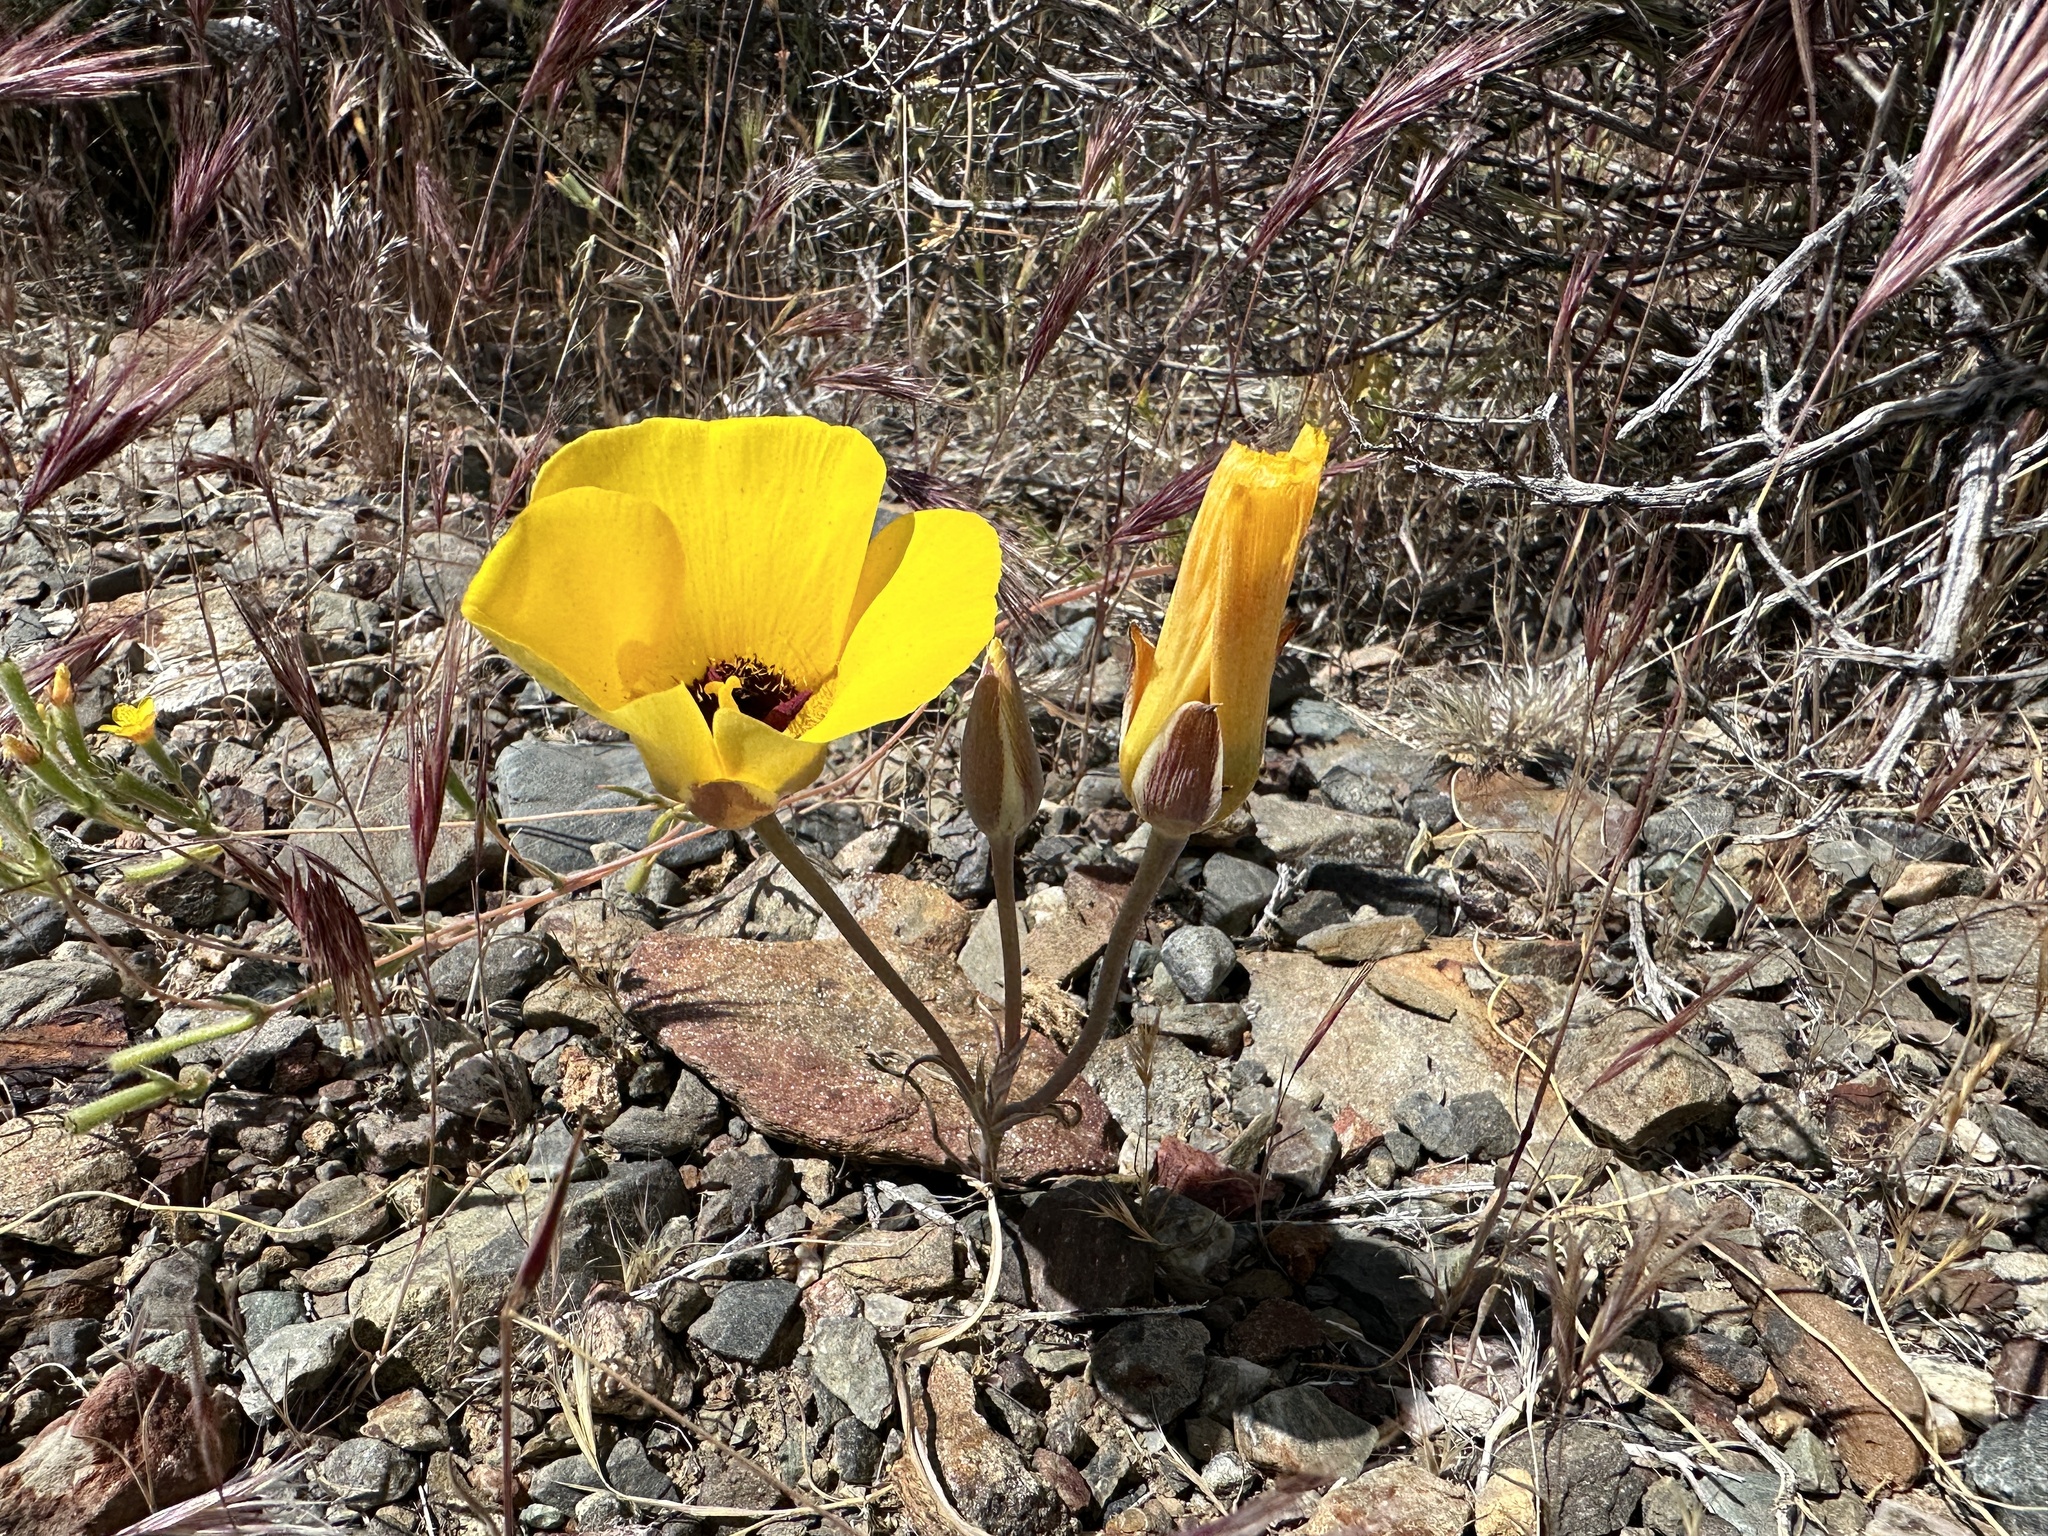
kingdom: Plantae
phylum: Tracheophyta
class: Liliopsida
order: Liliales
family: Liliaceae
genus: Calochortus
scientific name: Calochortus kennedyi
